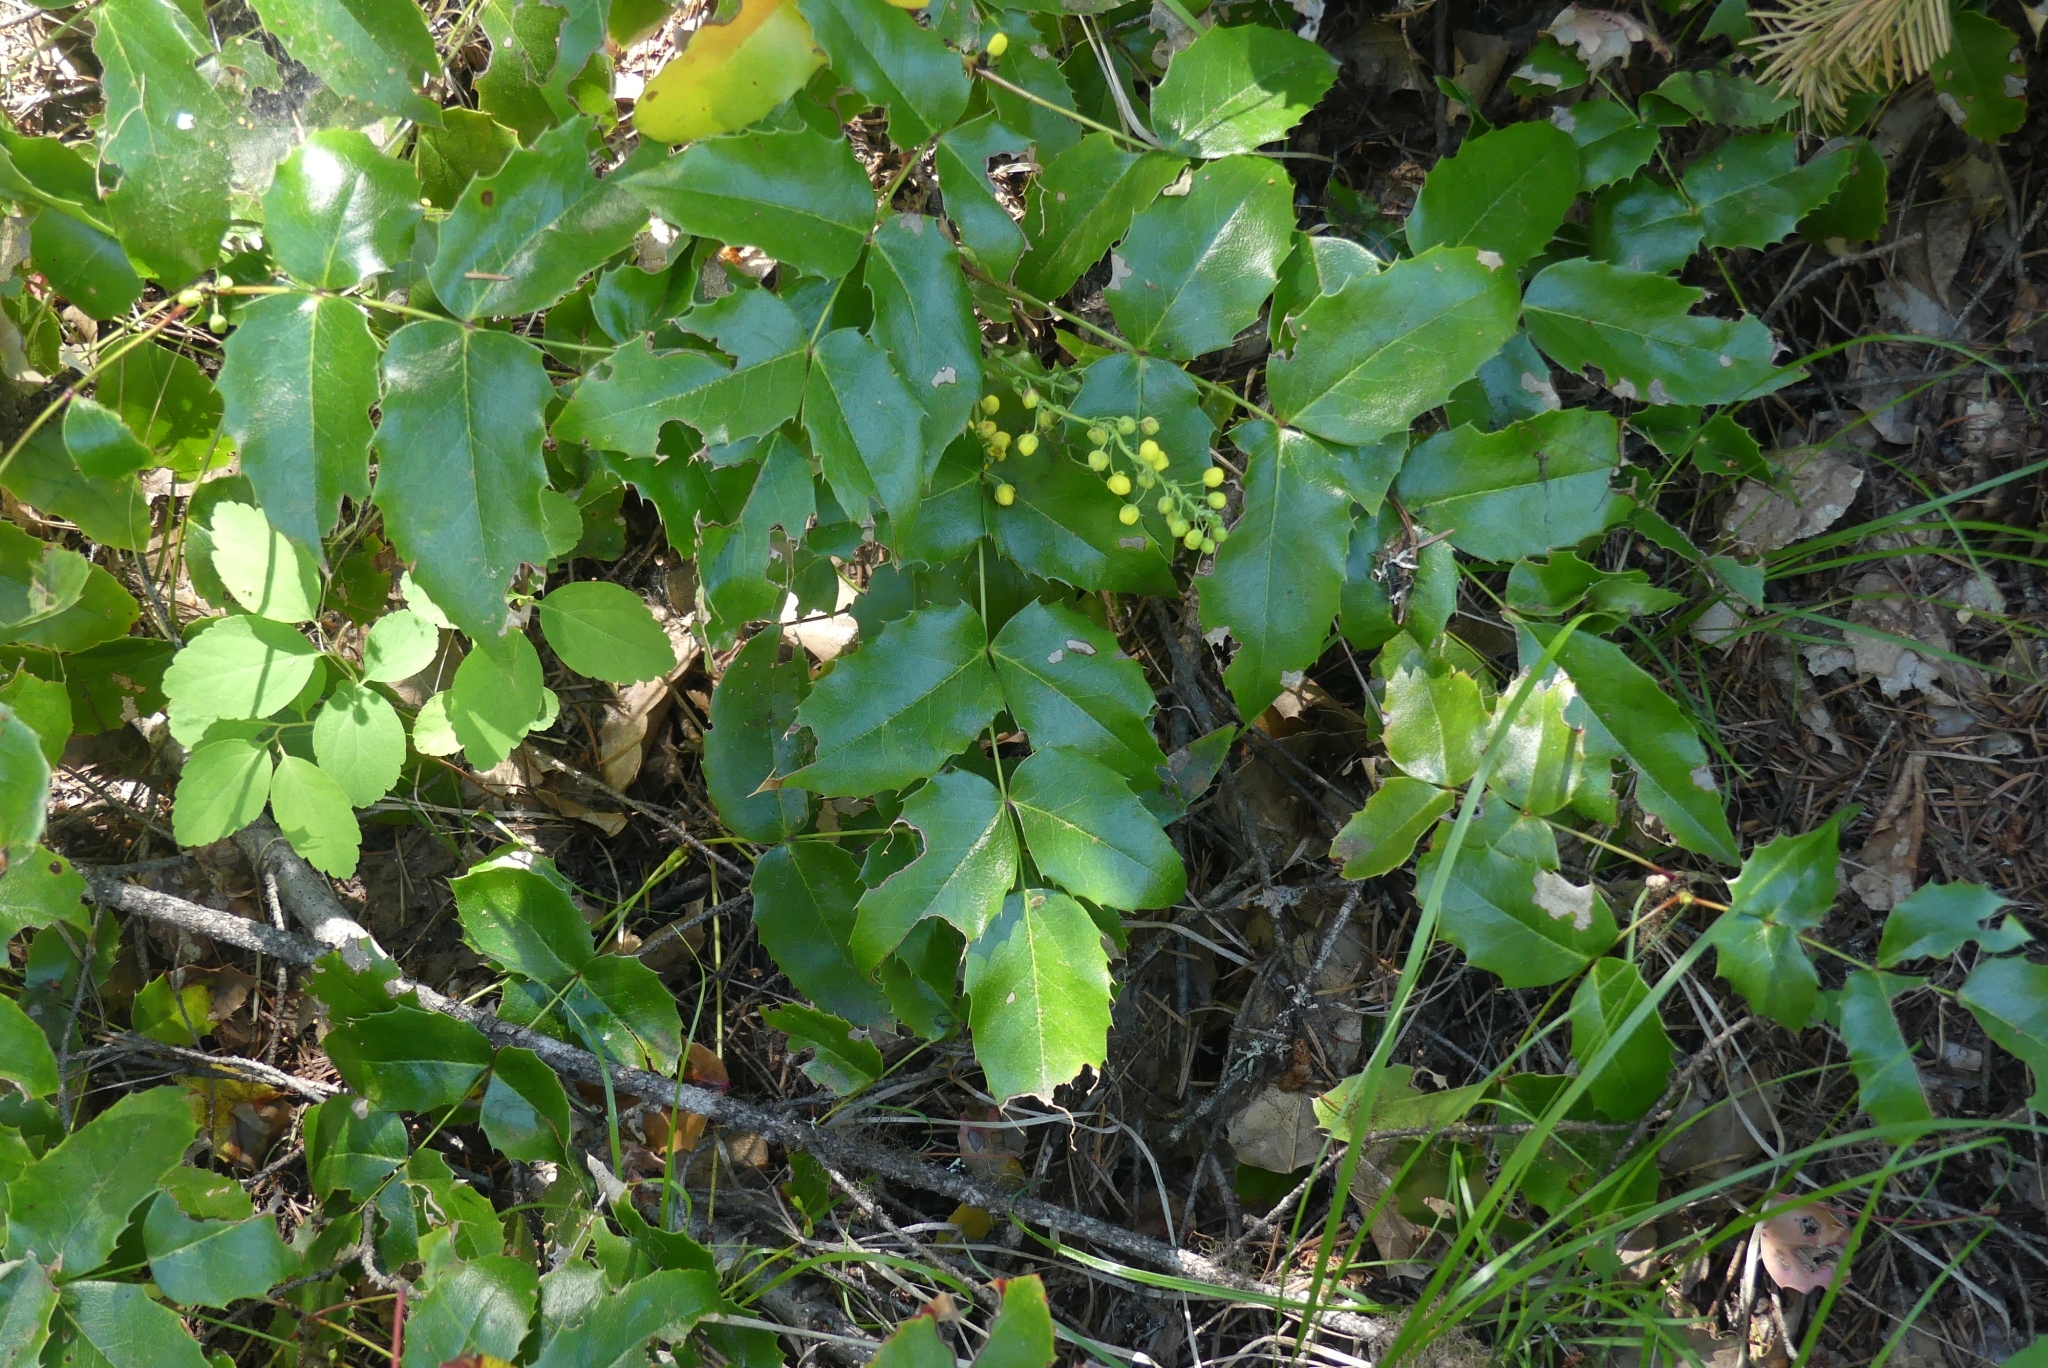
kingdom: Plantae
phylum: Tracheophyta
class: Magnoliopsida
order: Ranunculales
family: Berberidaceae
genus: Mahonia
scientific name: Mahonia aquifolium
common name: Oregon-grape
